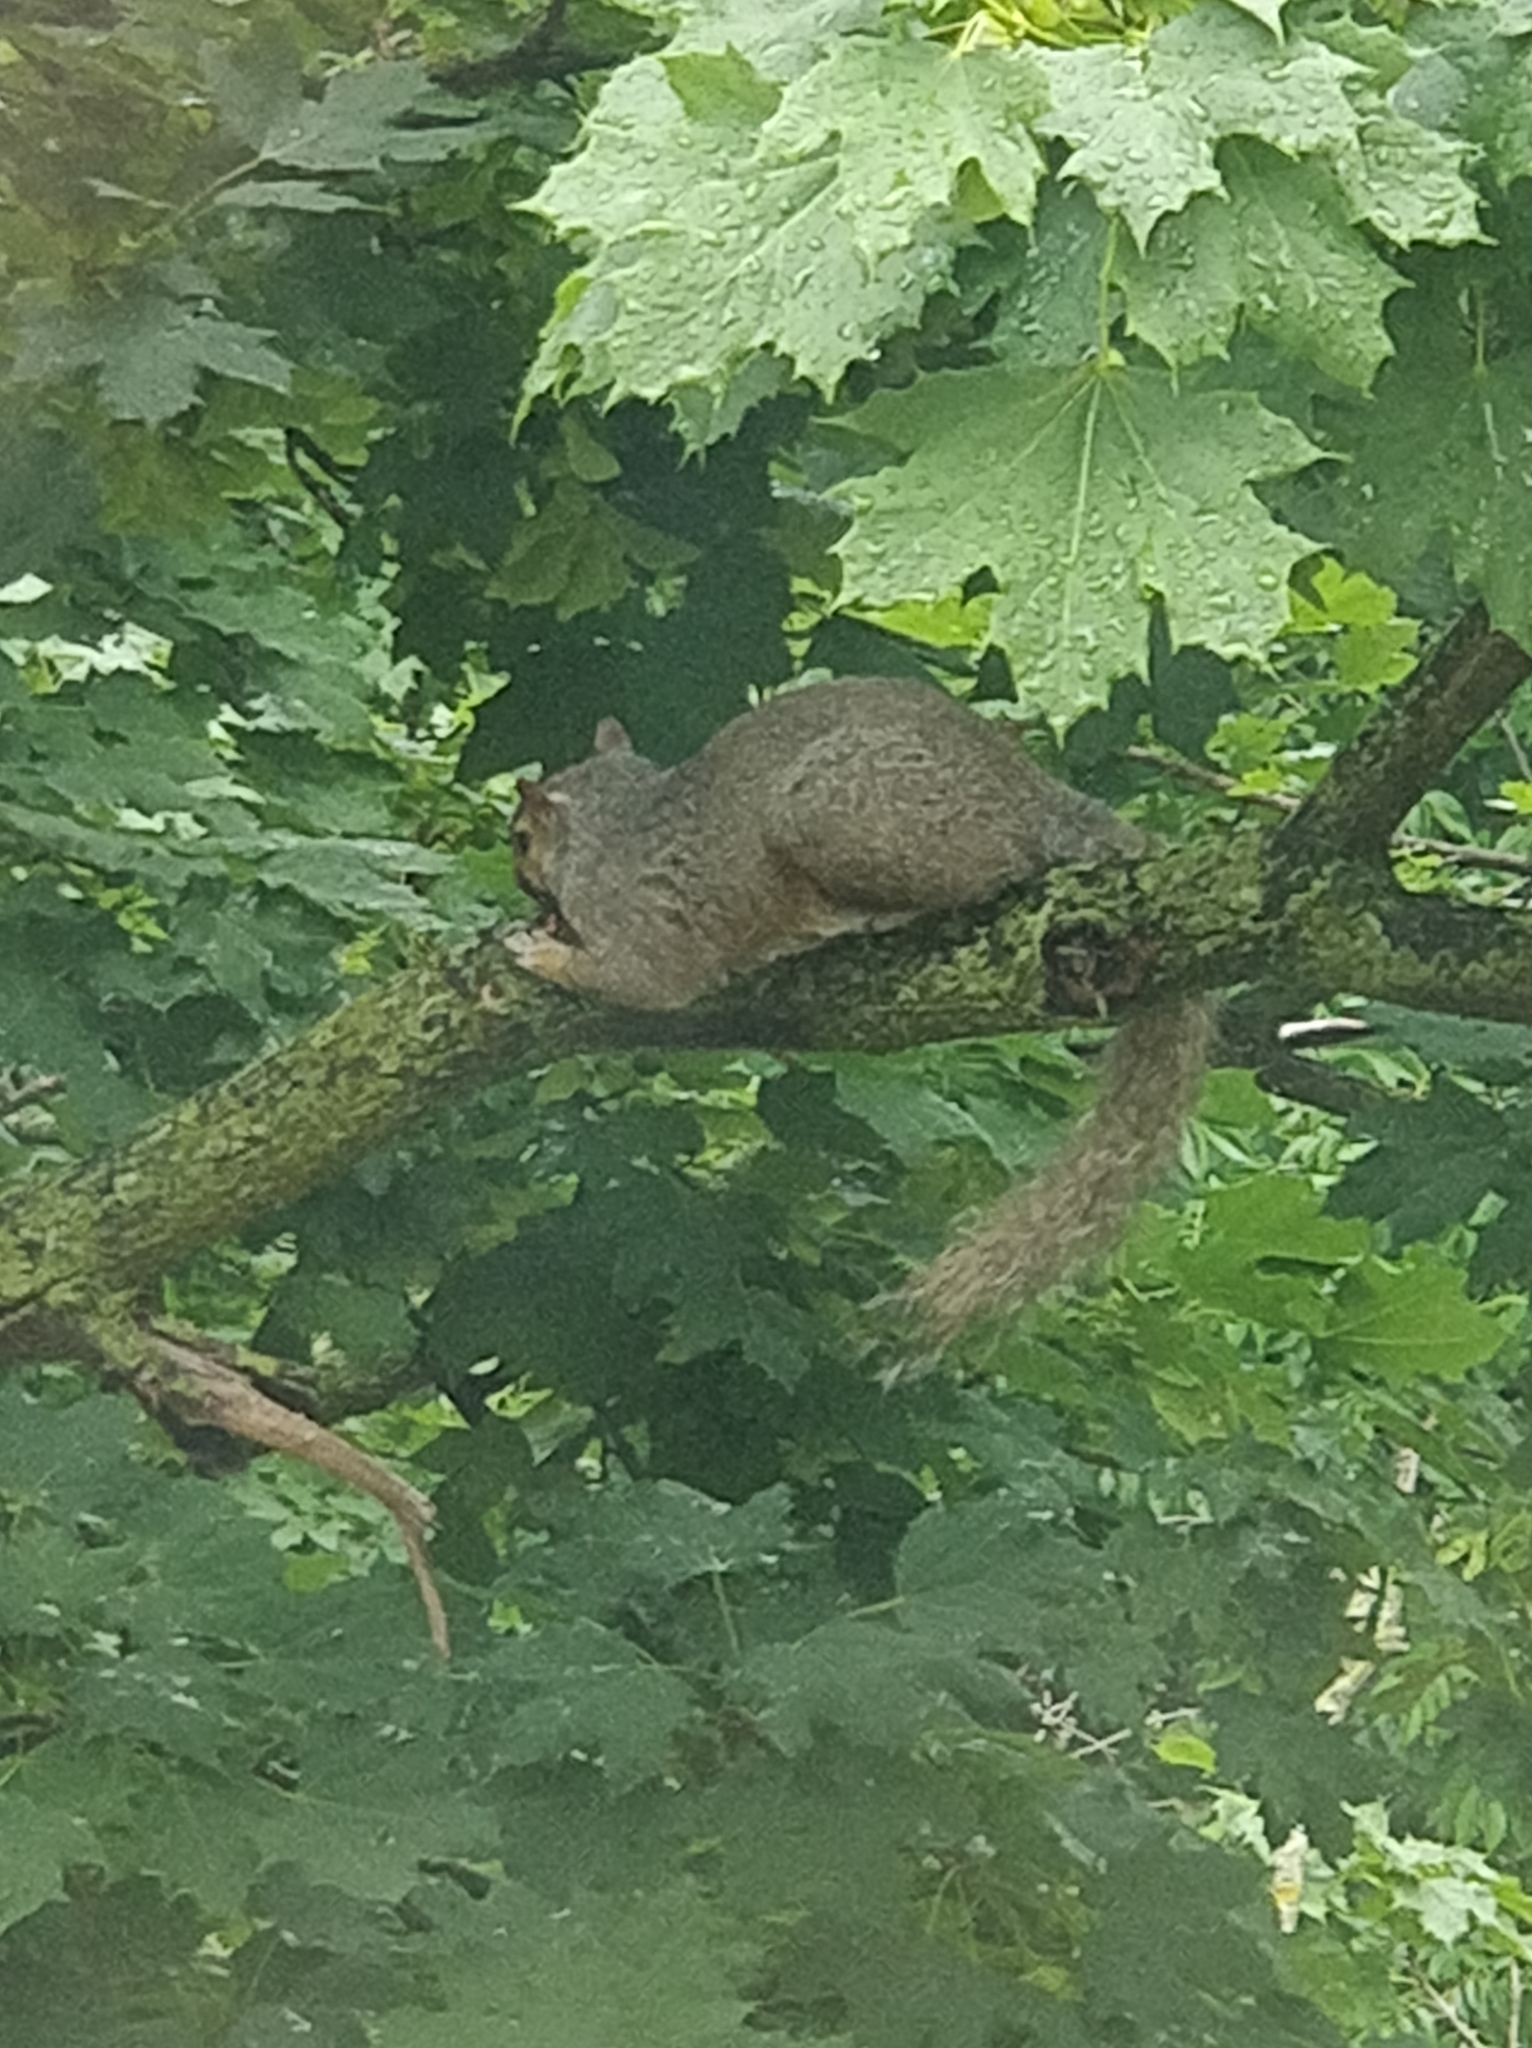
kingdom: Animalia
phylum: Chordata
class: Mammalia
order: Rodentia
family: Sciuridae
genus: Sciurus
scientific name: Sciurus carolinensis
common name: Eastern gray squirrel
